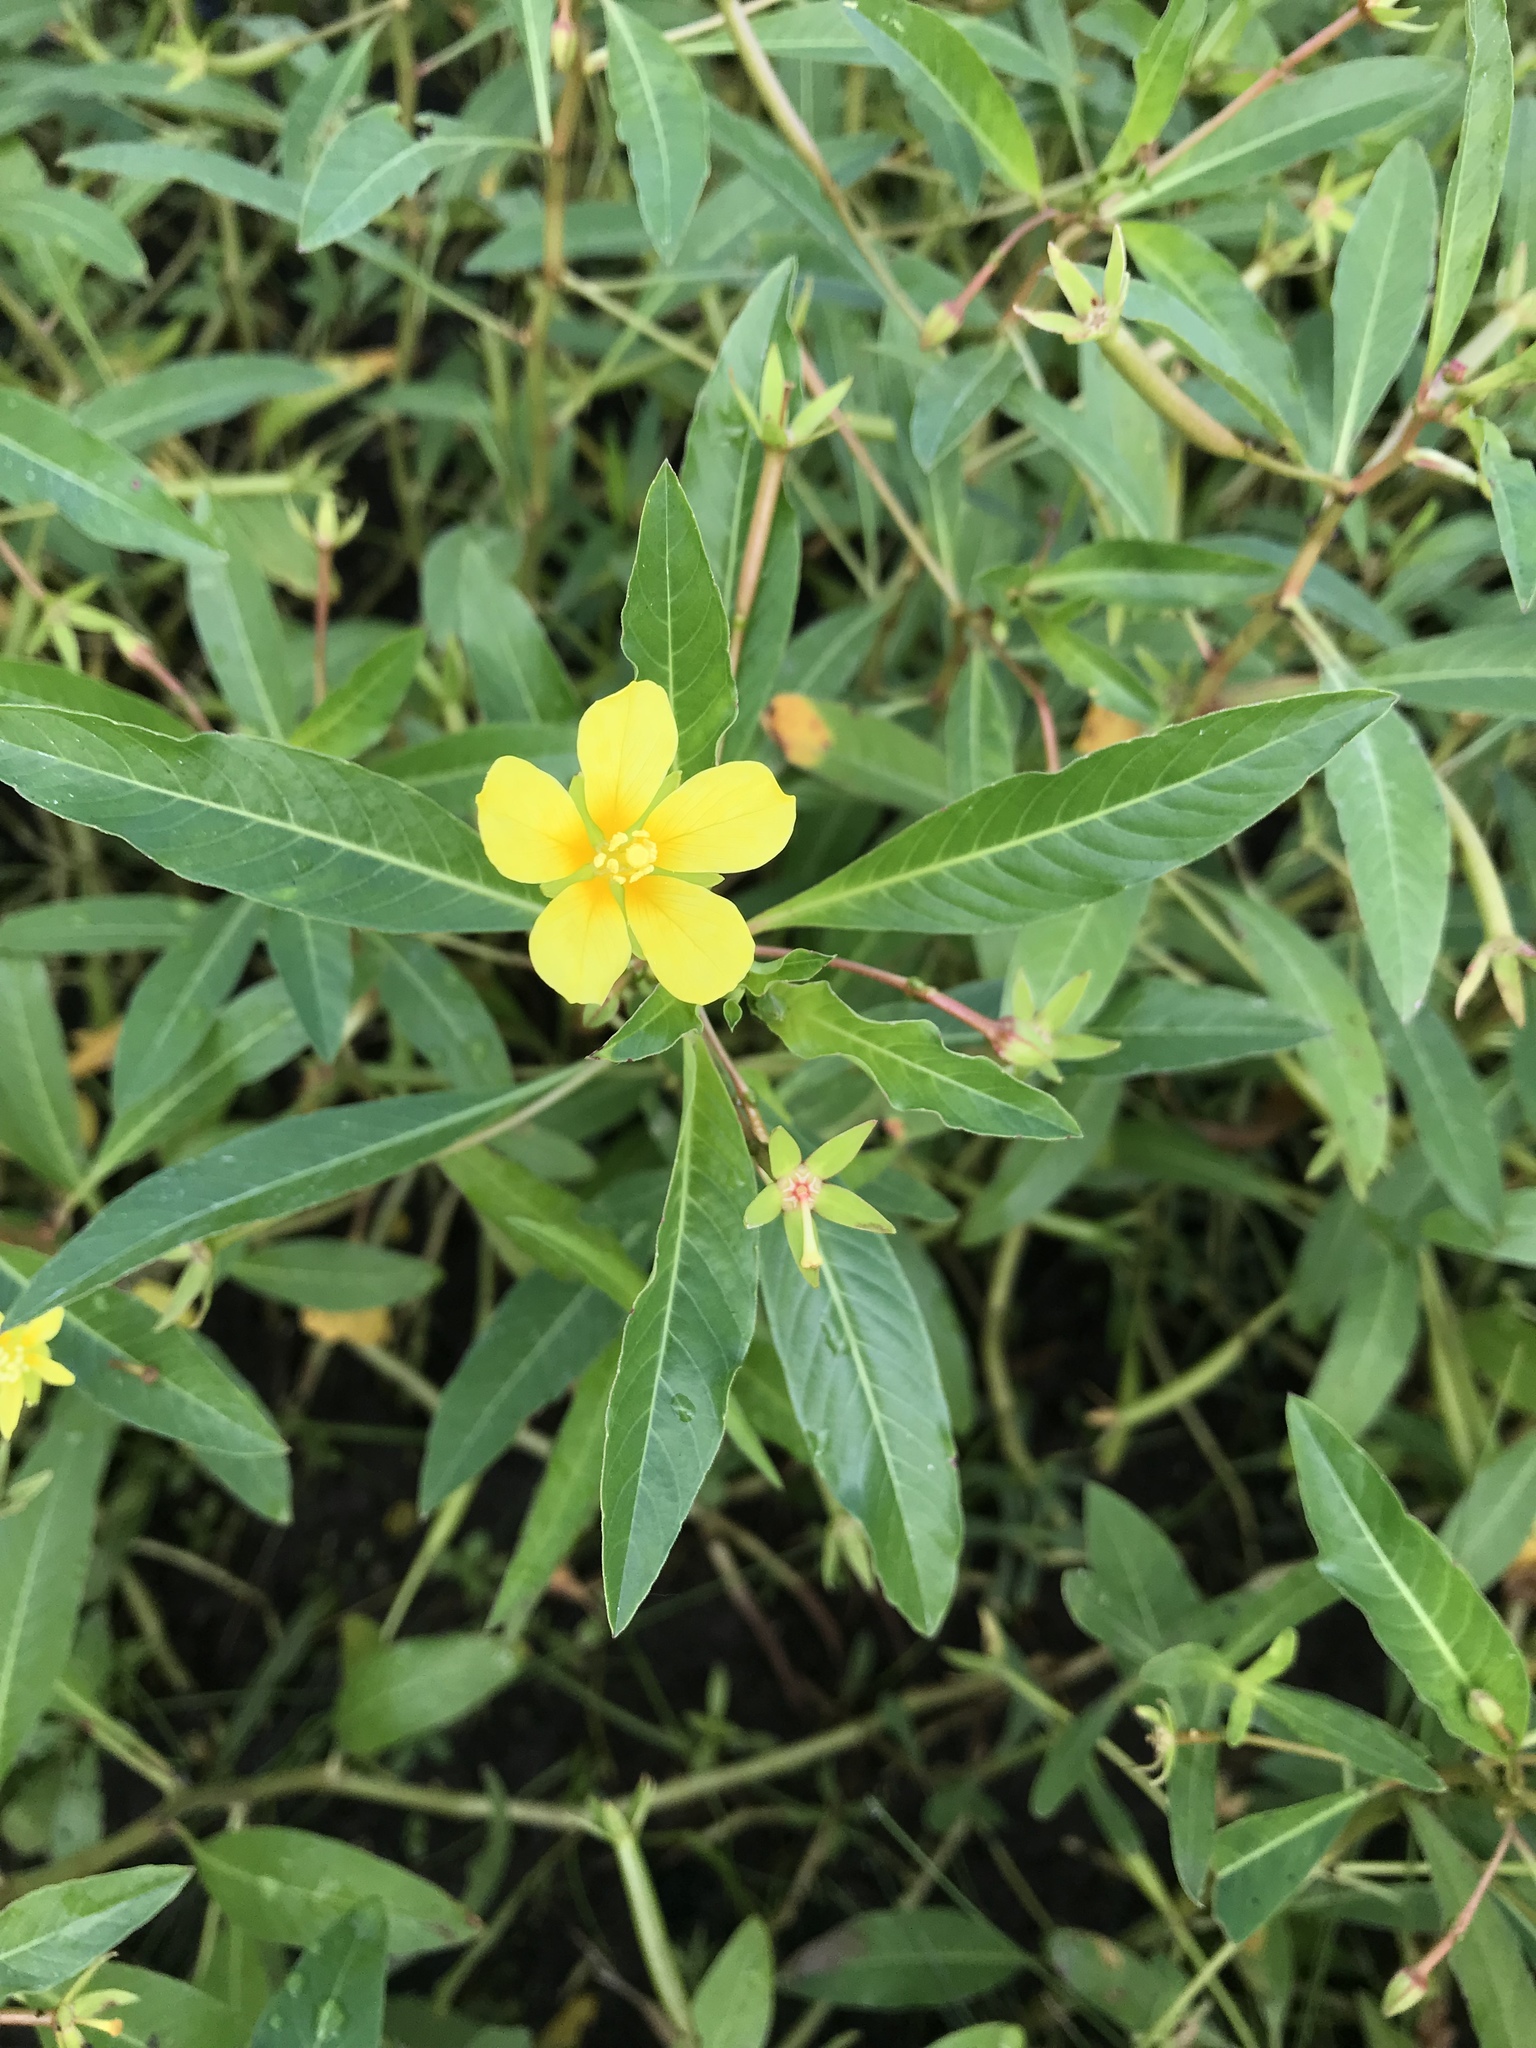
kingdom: Plantae
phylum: Tracheophyta
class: Magnoliopsida
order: Myrtales
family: Onagraceae
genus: Ludwigia
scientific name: Ludwigia peploides
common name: Floating primrose-willow
